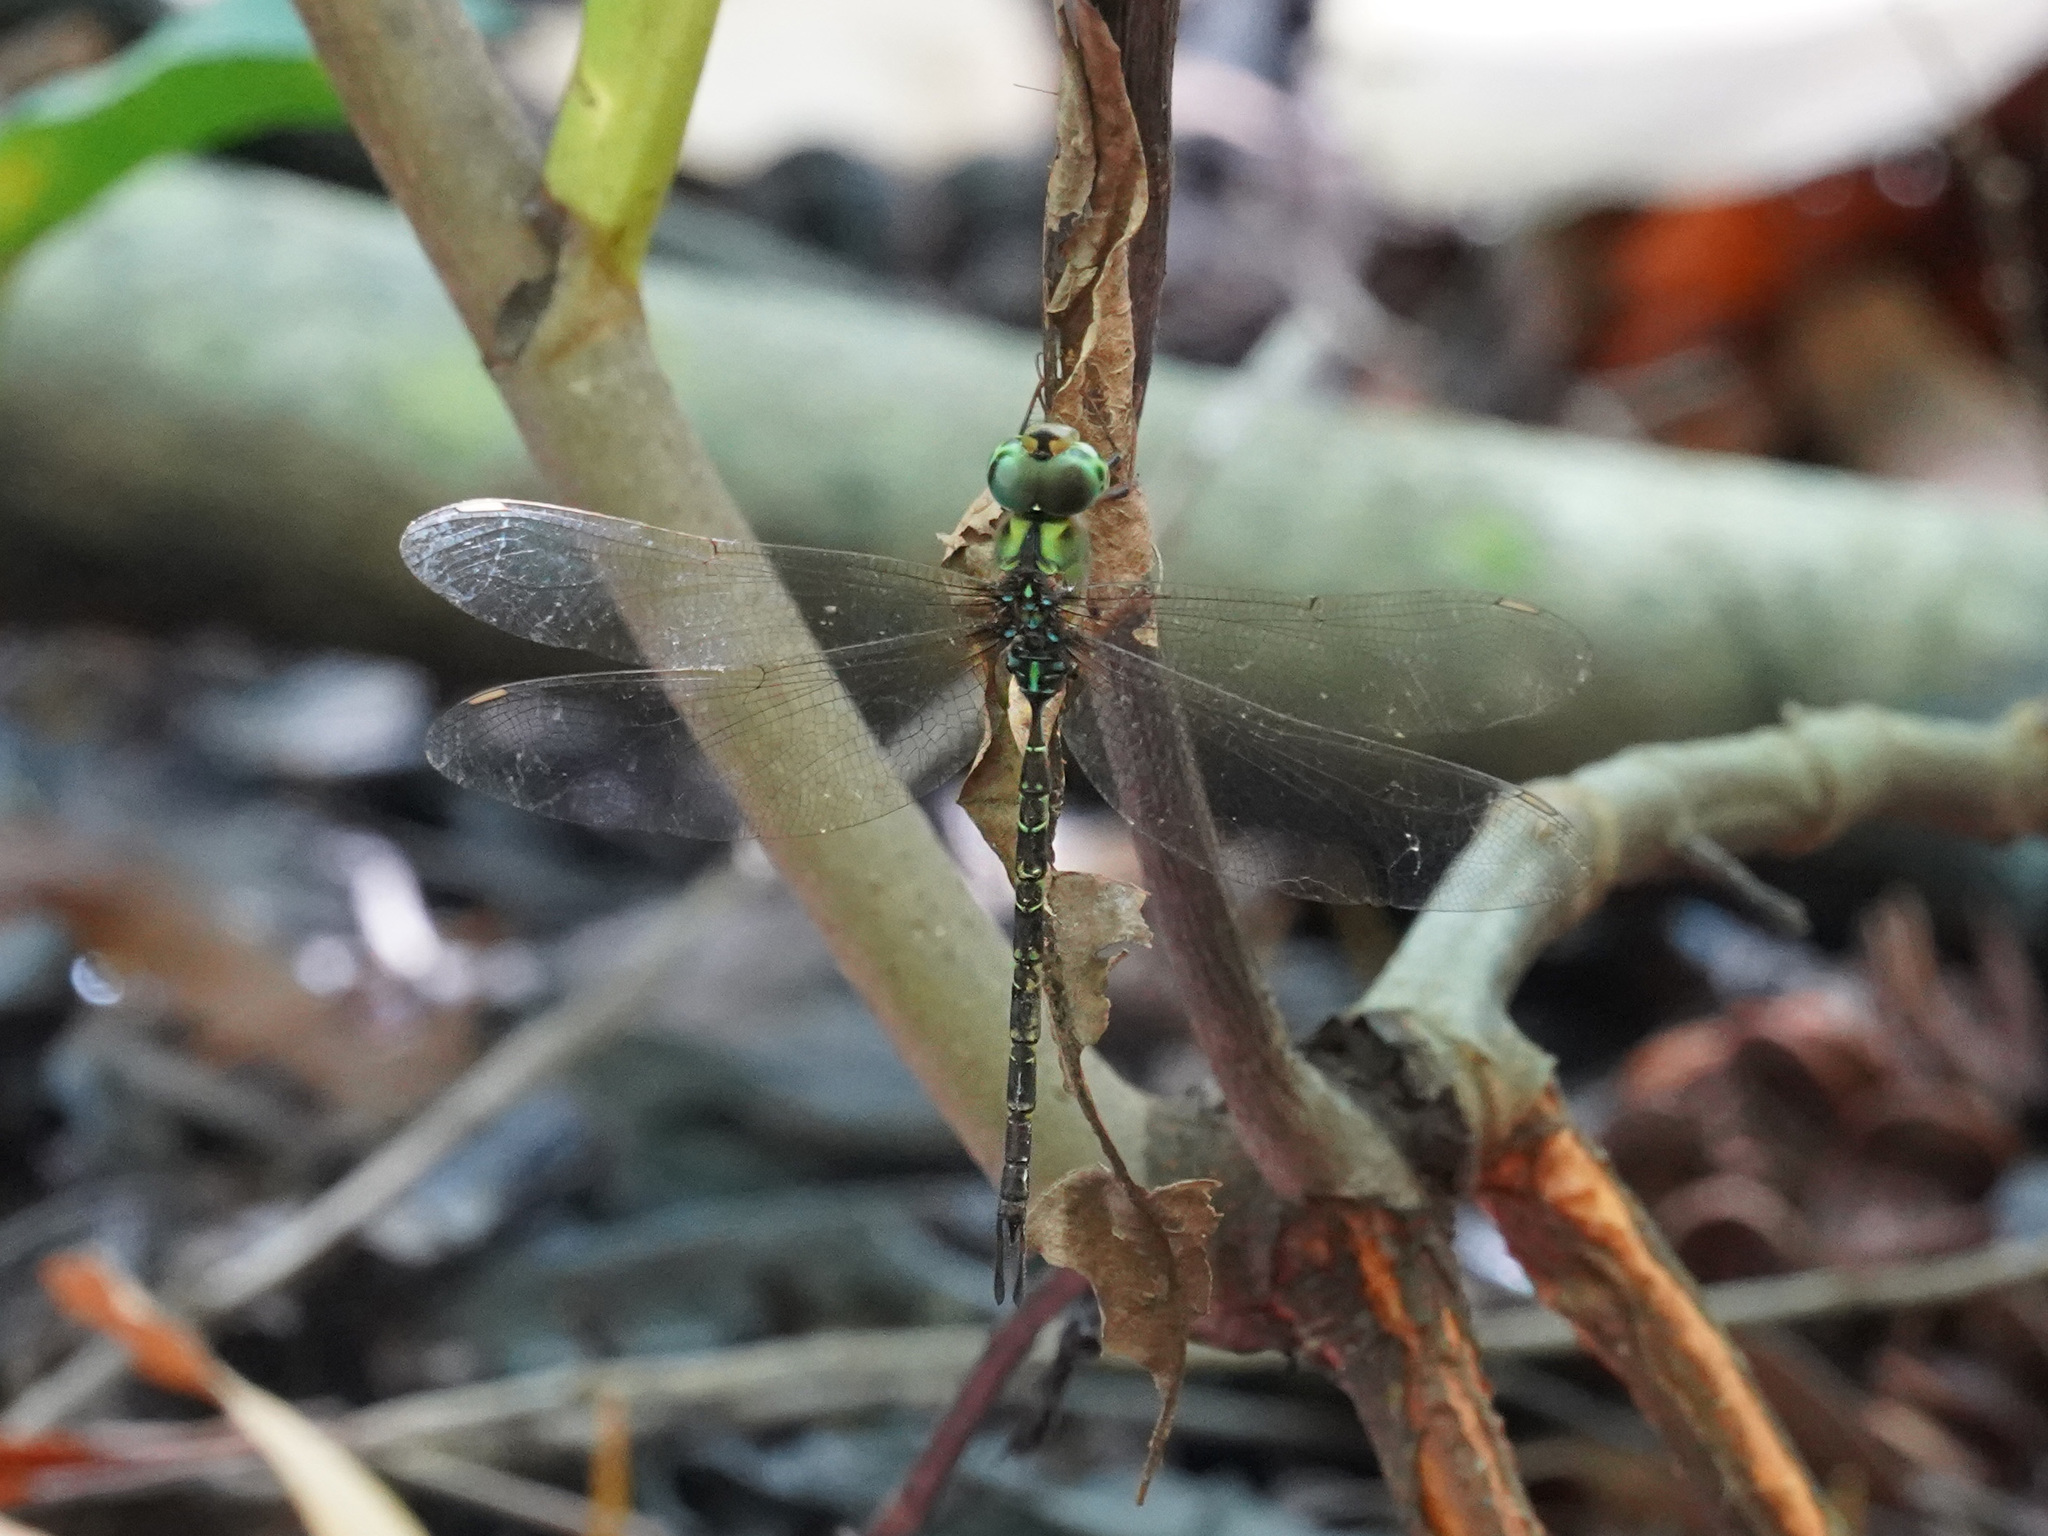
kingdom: Animalia
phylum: Arthropoda
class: Insecta
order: Odonata
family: Aeshnidae
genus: Gynacantha
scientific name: Gynacantha subinterrupta
